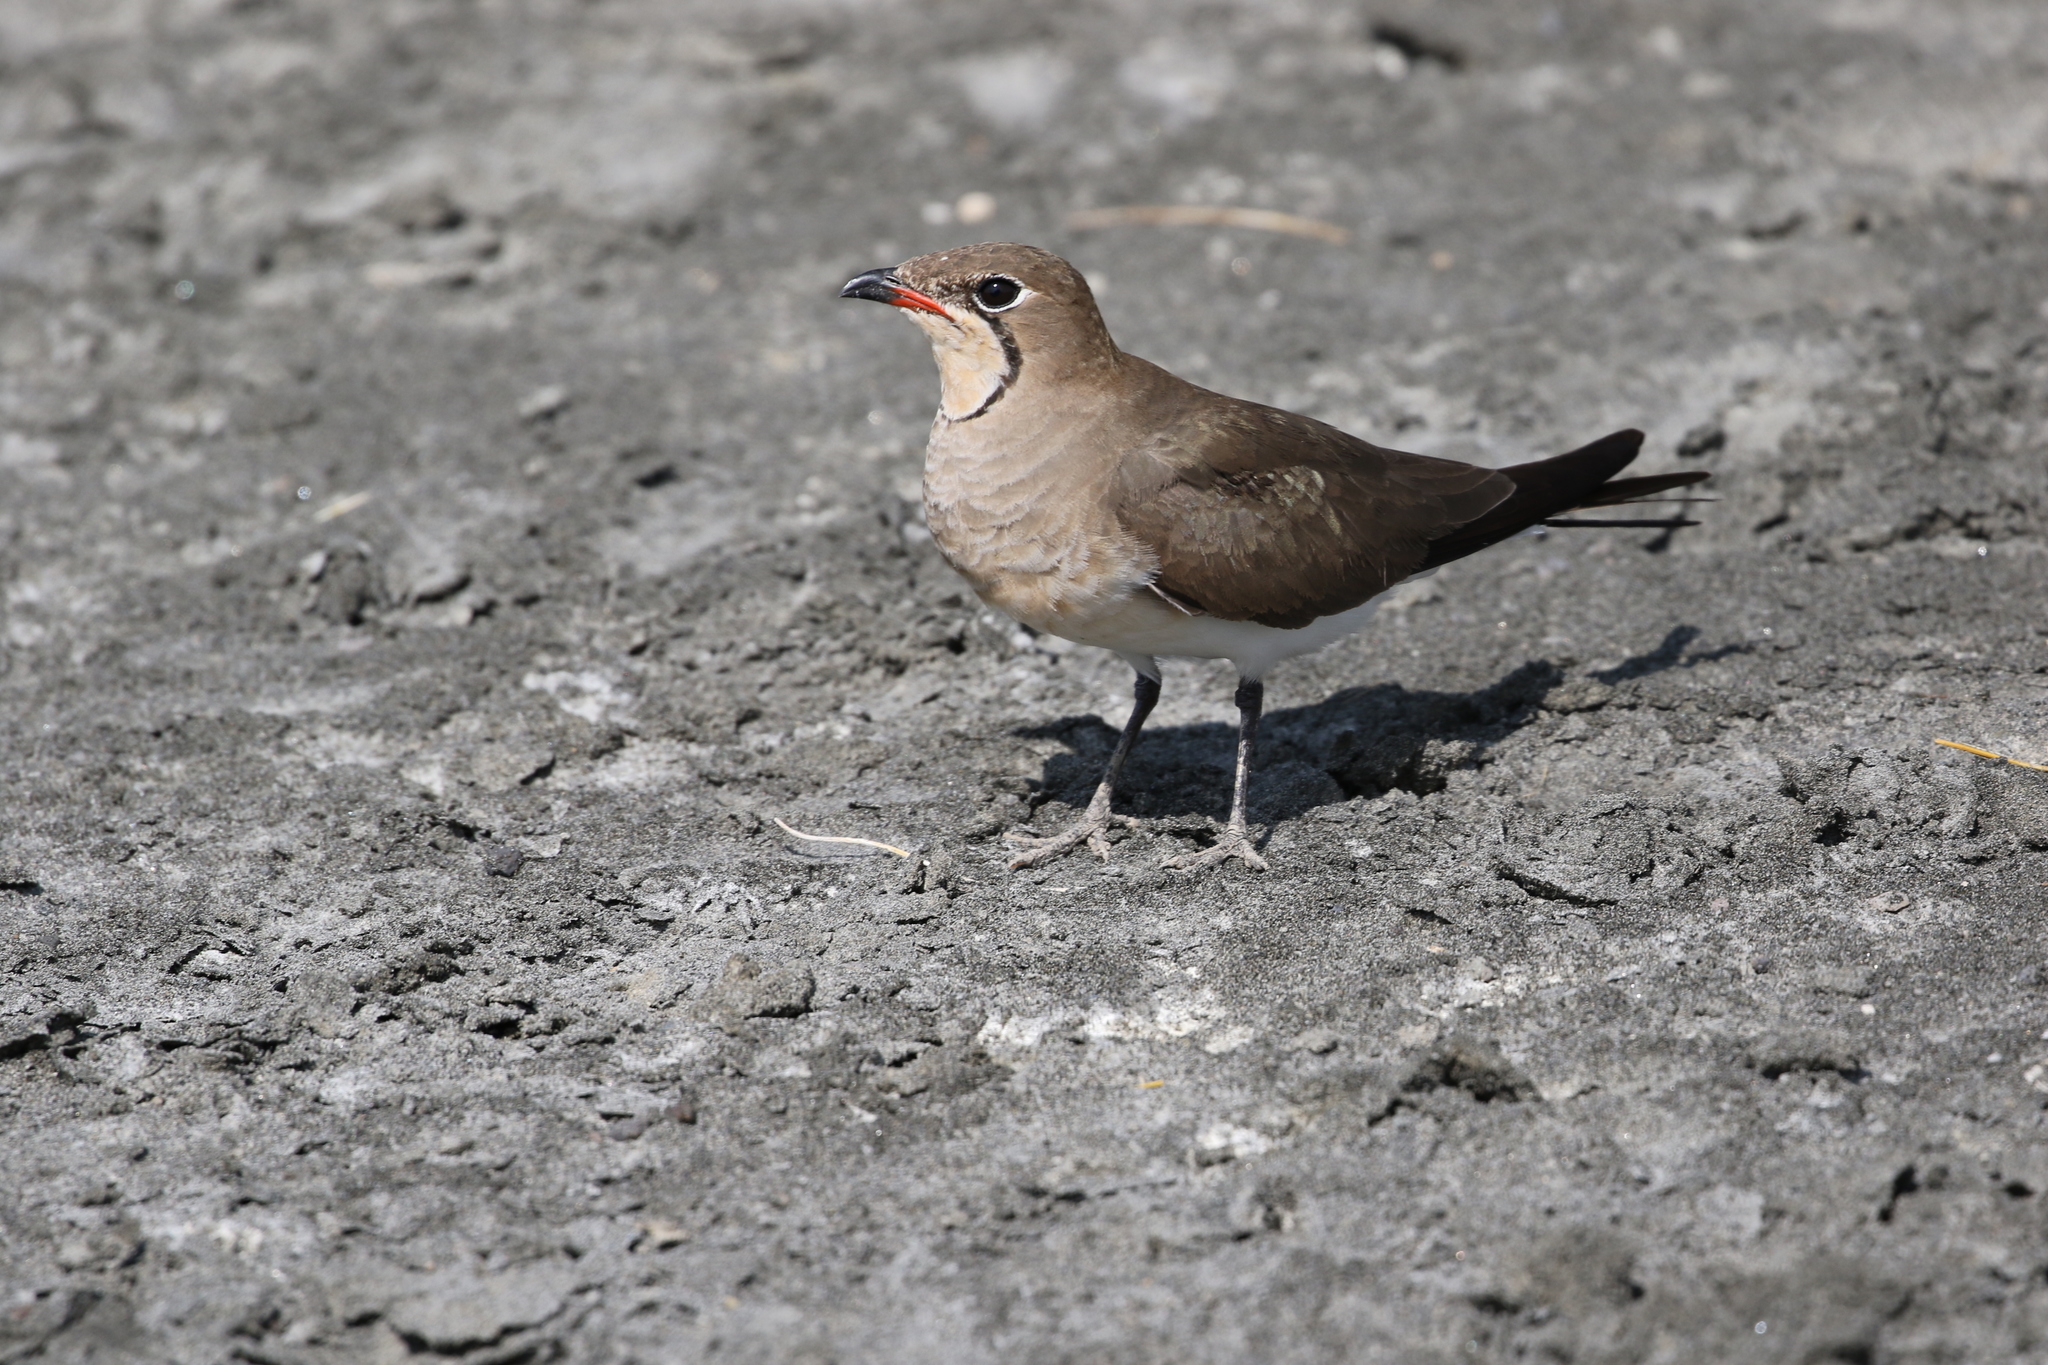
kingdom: Animalia
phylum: Chordata
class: Aves
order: Charadriiformes
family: Glareolidae
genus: Glareola
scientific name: Glareola pratincola
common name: Collared pratincole
